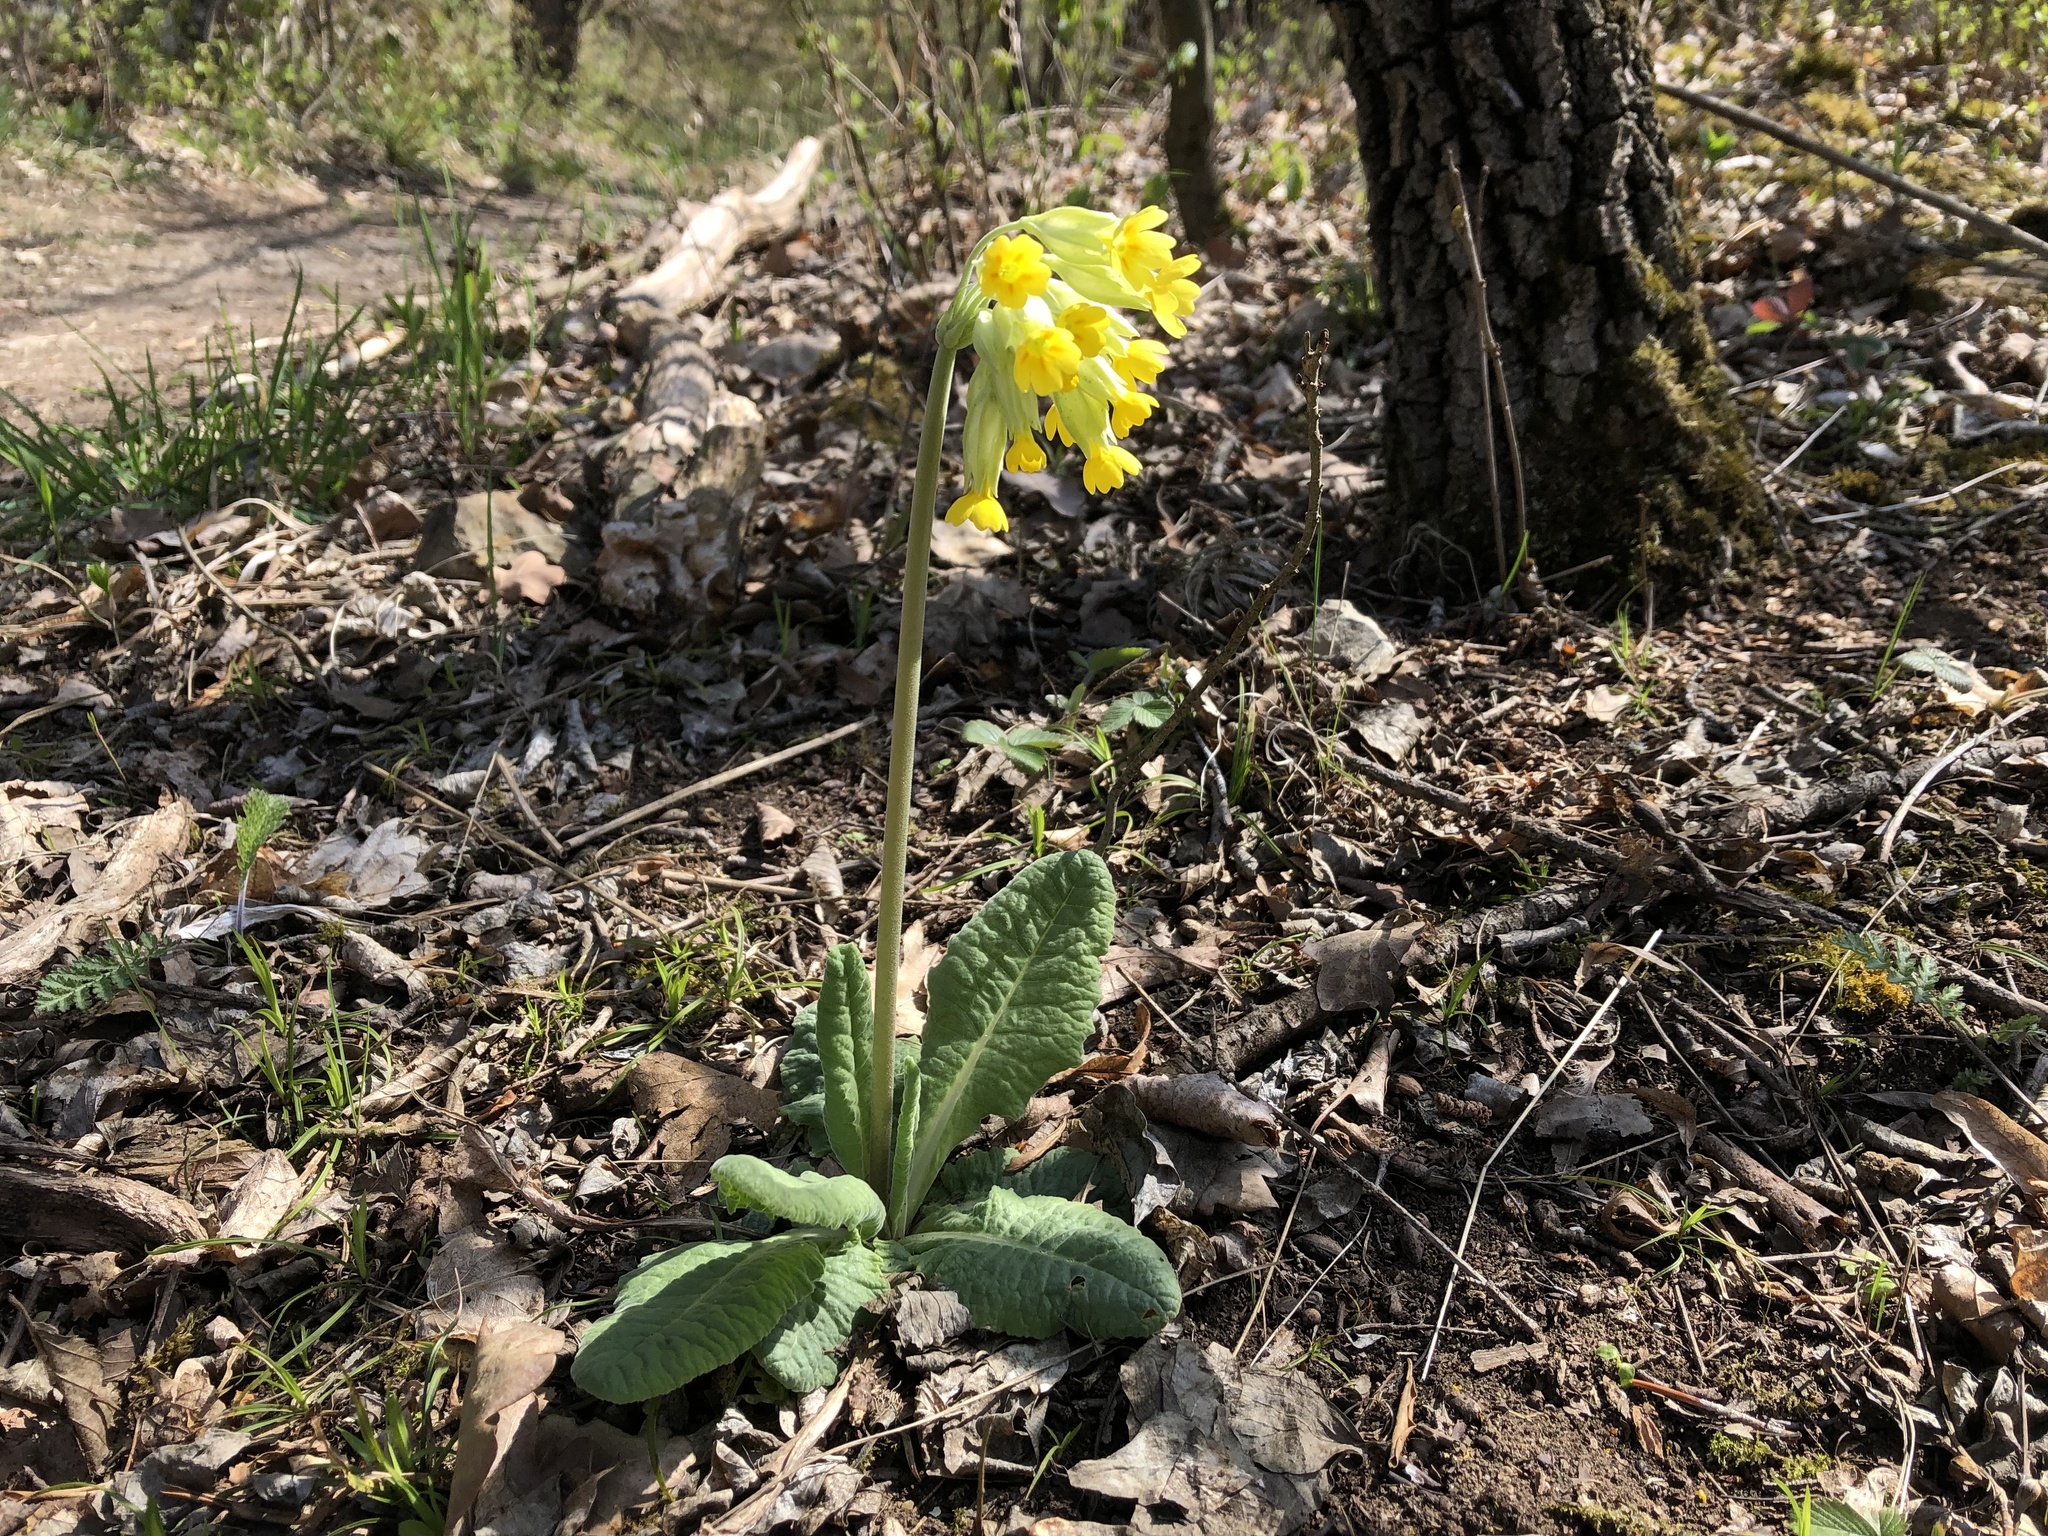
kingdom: Plantae
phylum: Tracheophyta
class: Magnoliopsida
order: Ericales
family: Primulaceae
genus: Primula
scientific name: Primula veris
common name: Cowslip
